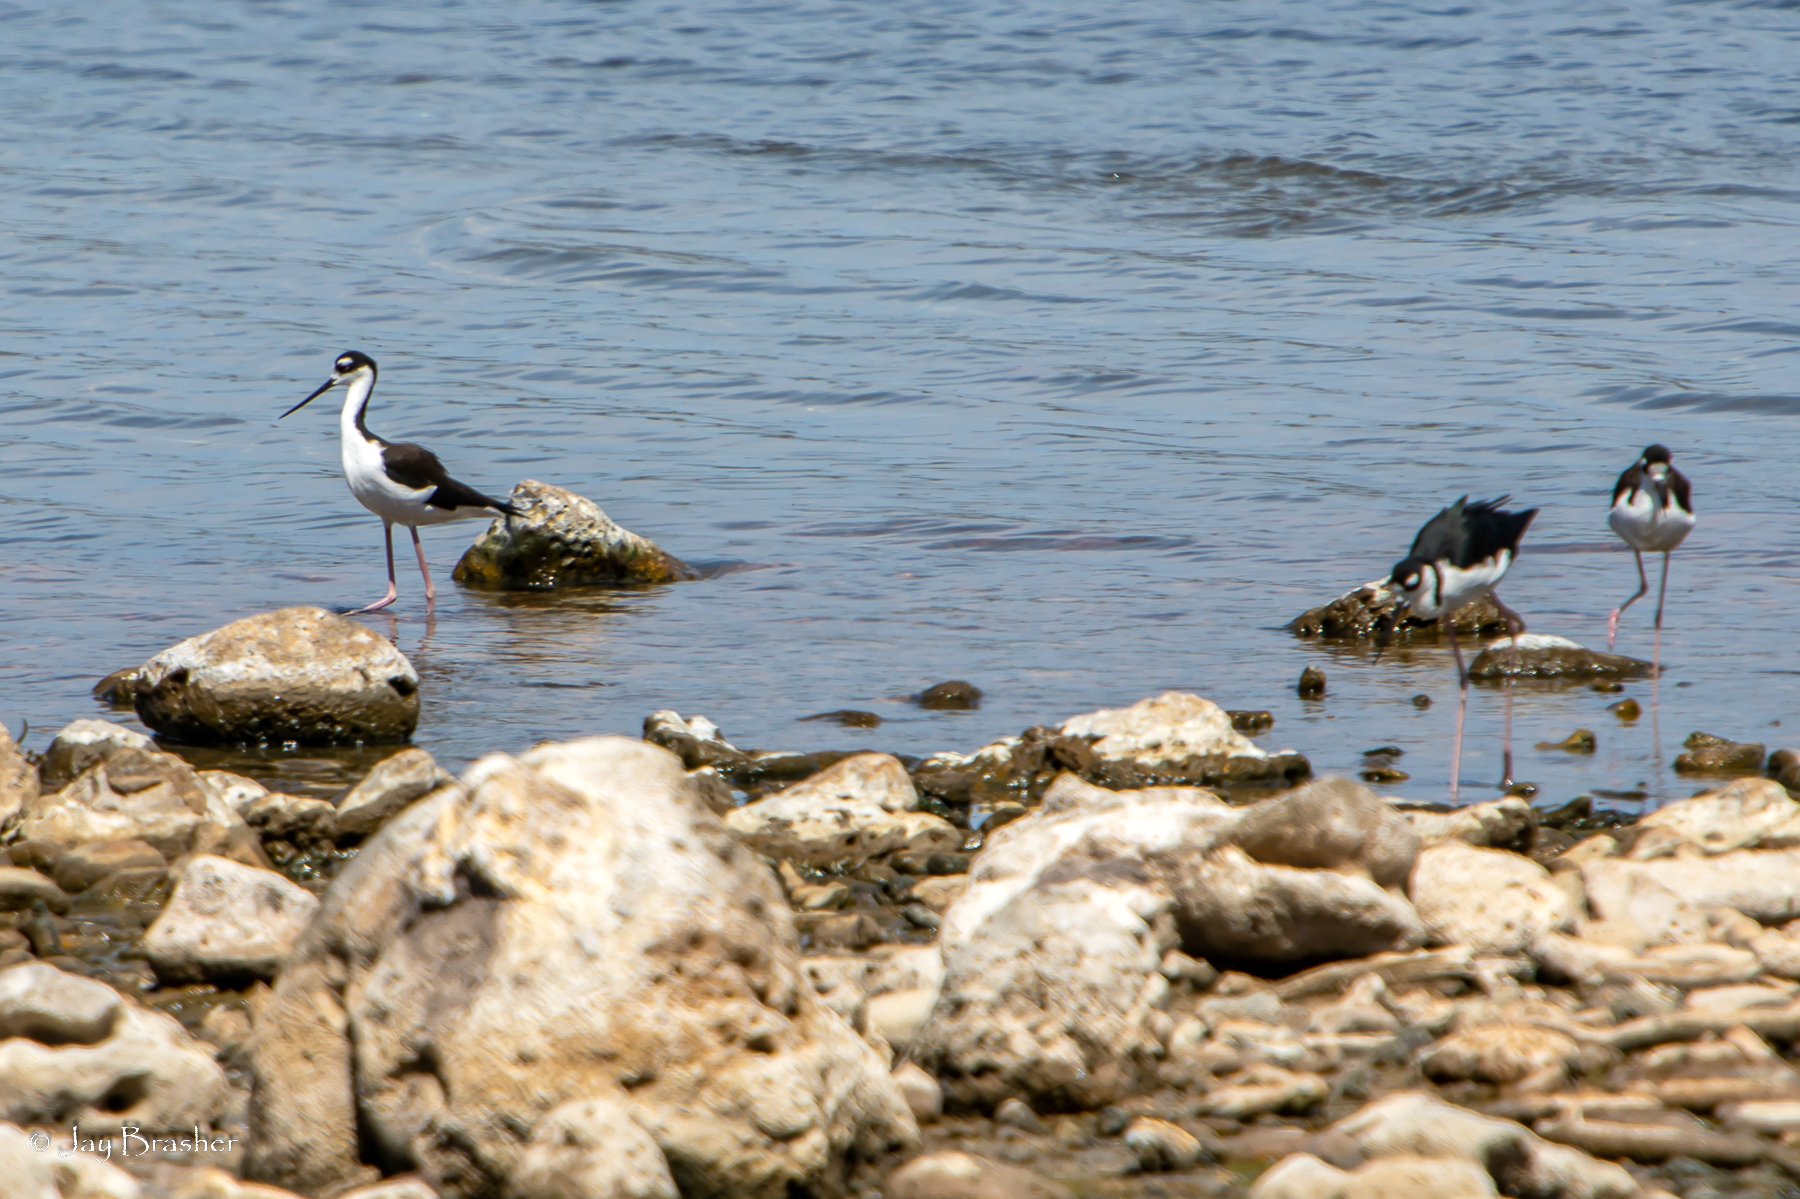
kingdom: Animalia
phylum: Chordata
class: Aves
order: Charadriiformes
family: Recurvirostridae
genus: Himantopus
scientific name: Himantopus mexicanus
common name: Black-necked stilt
